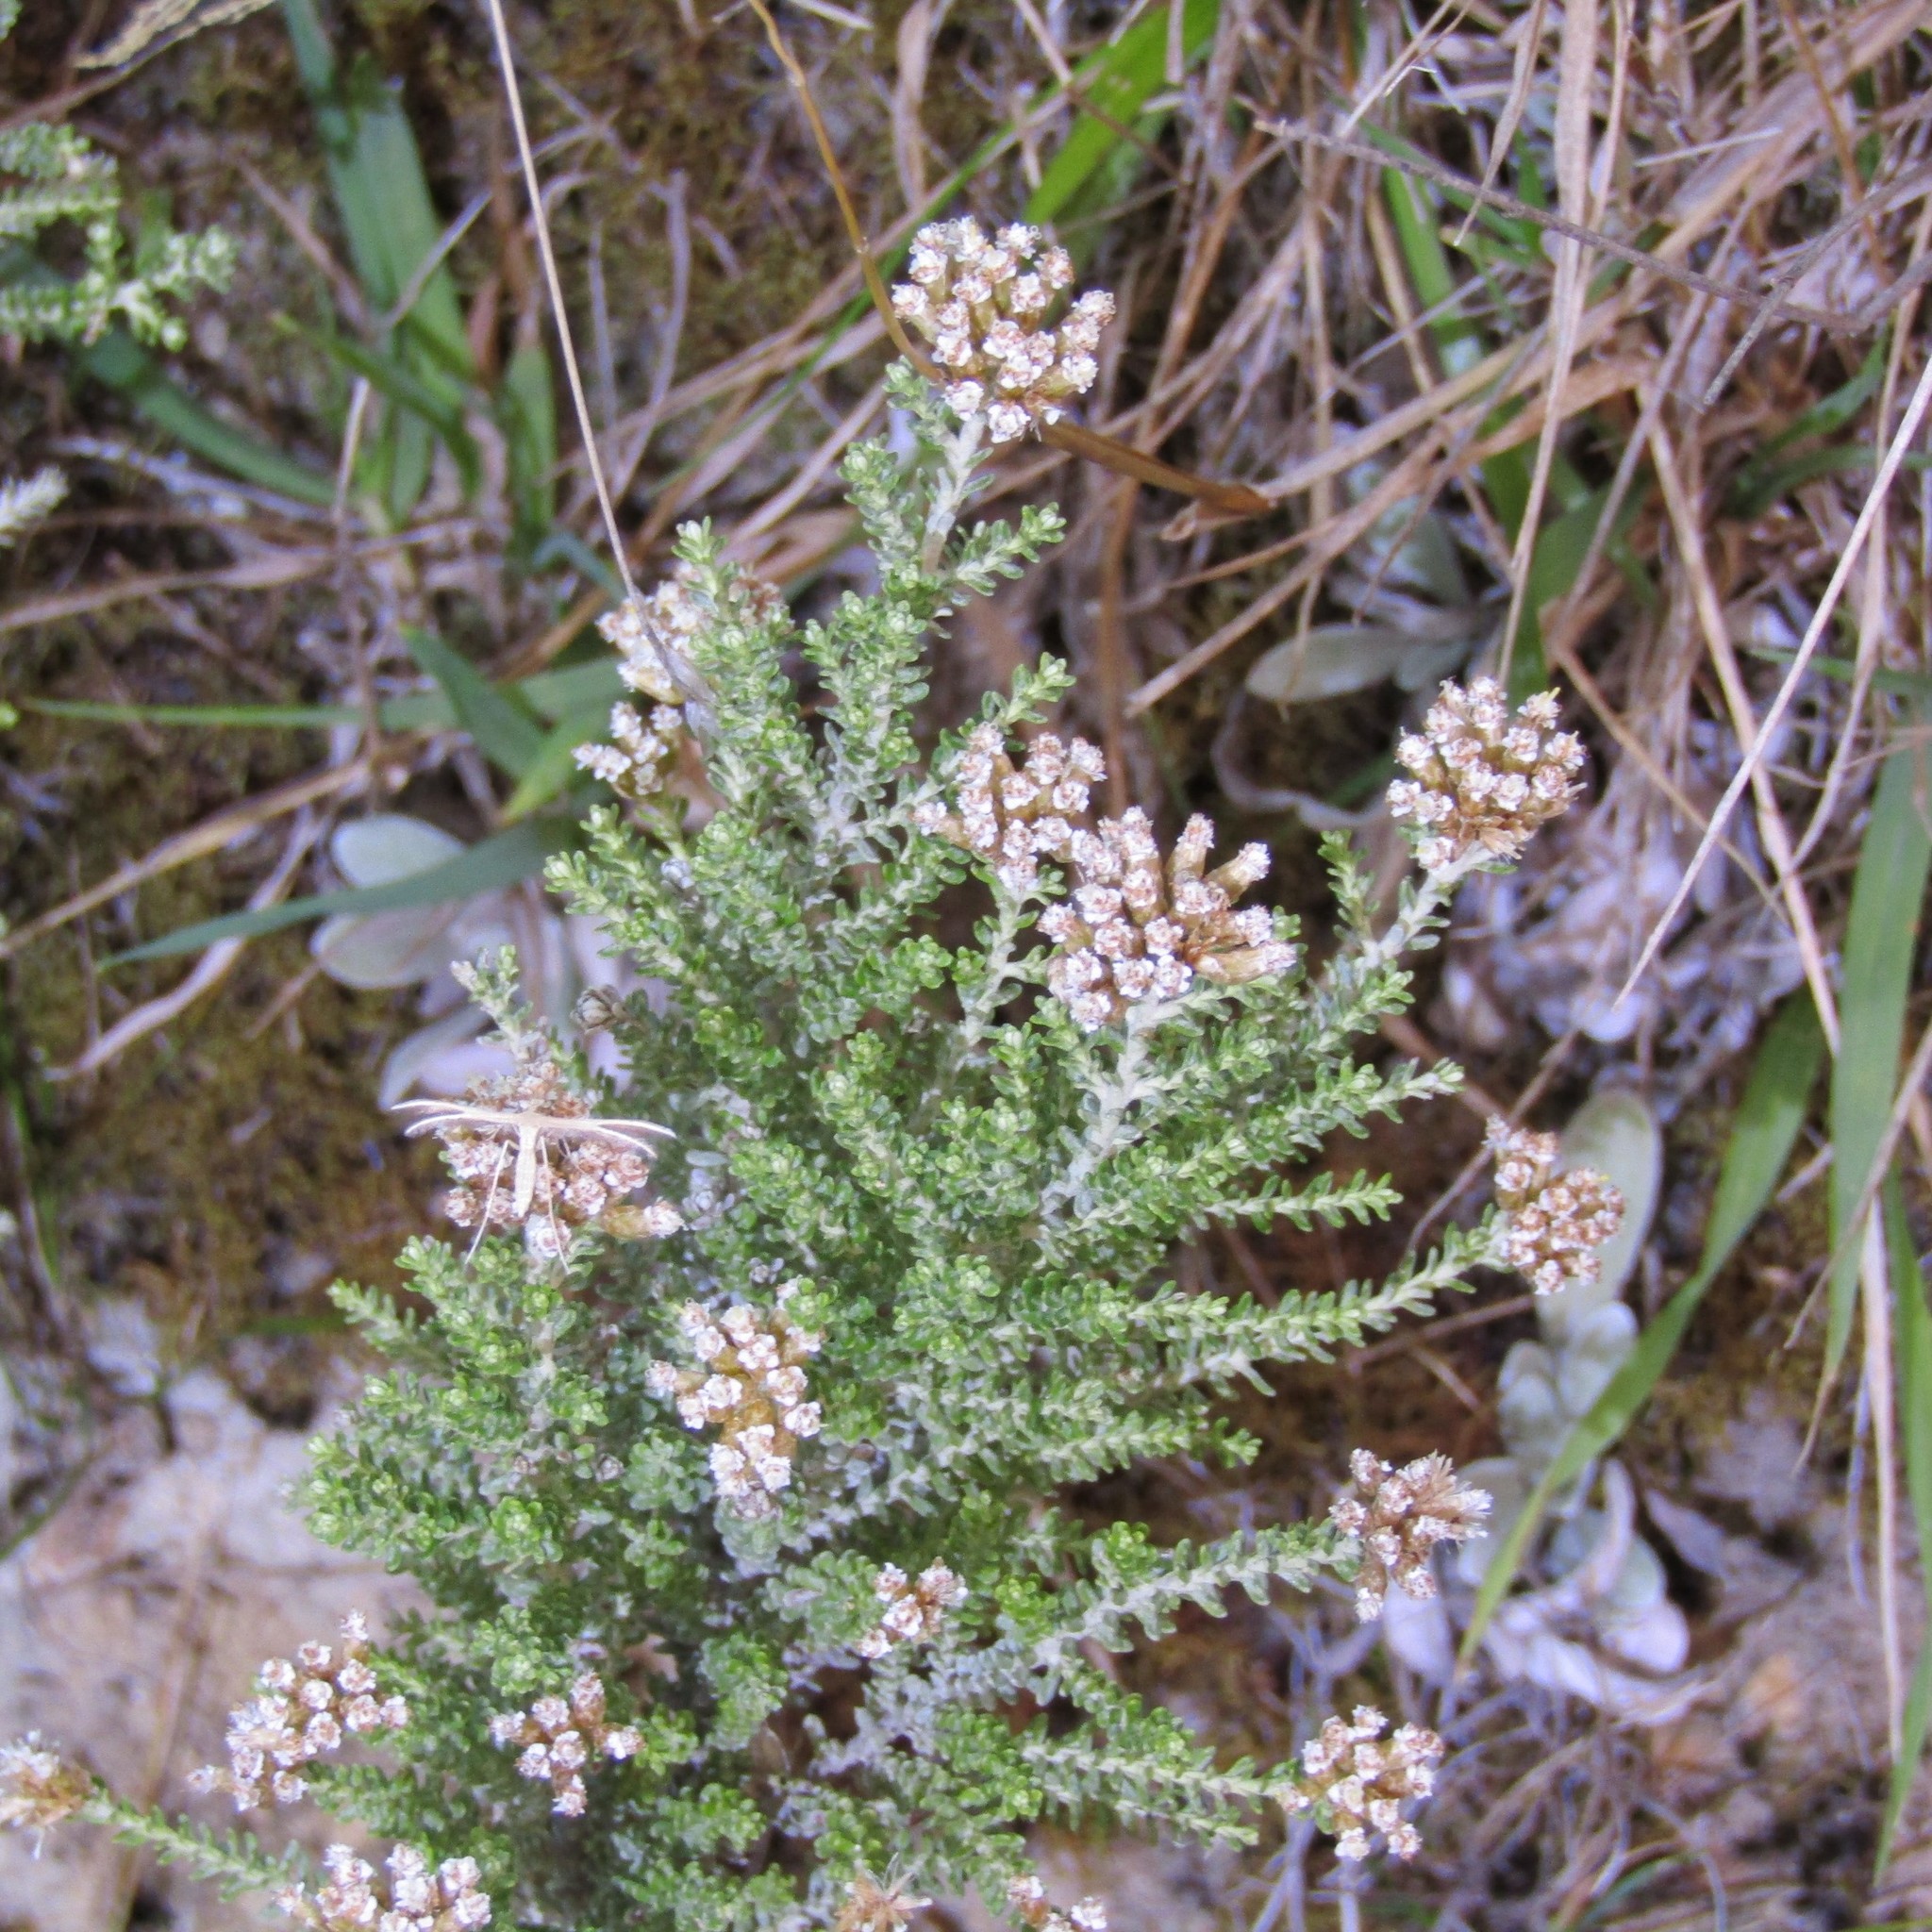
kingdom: Plantae
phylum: Tracheophyta
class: Magnoliopsida
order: Asterales
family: Asteraceae
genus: Ozothamnus
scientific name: Ozothamnus leptophyllus
